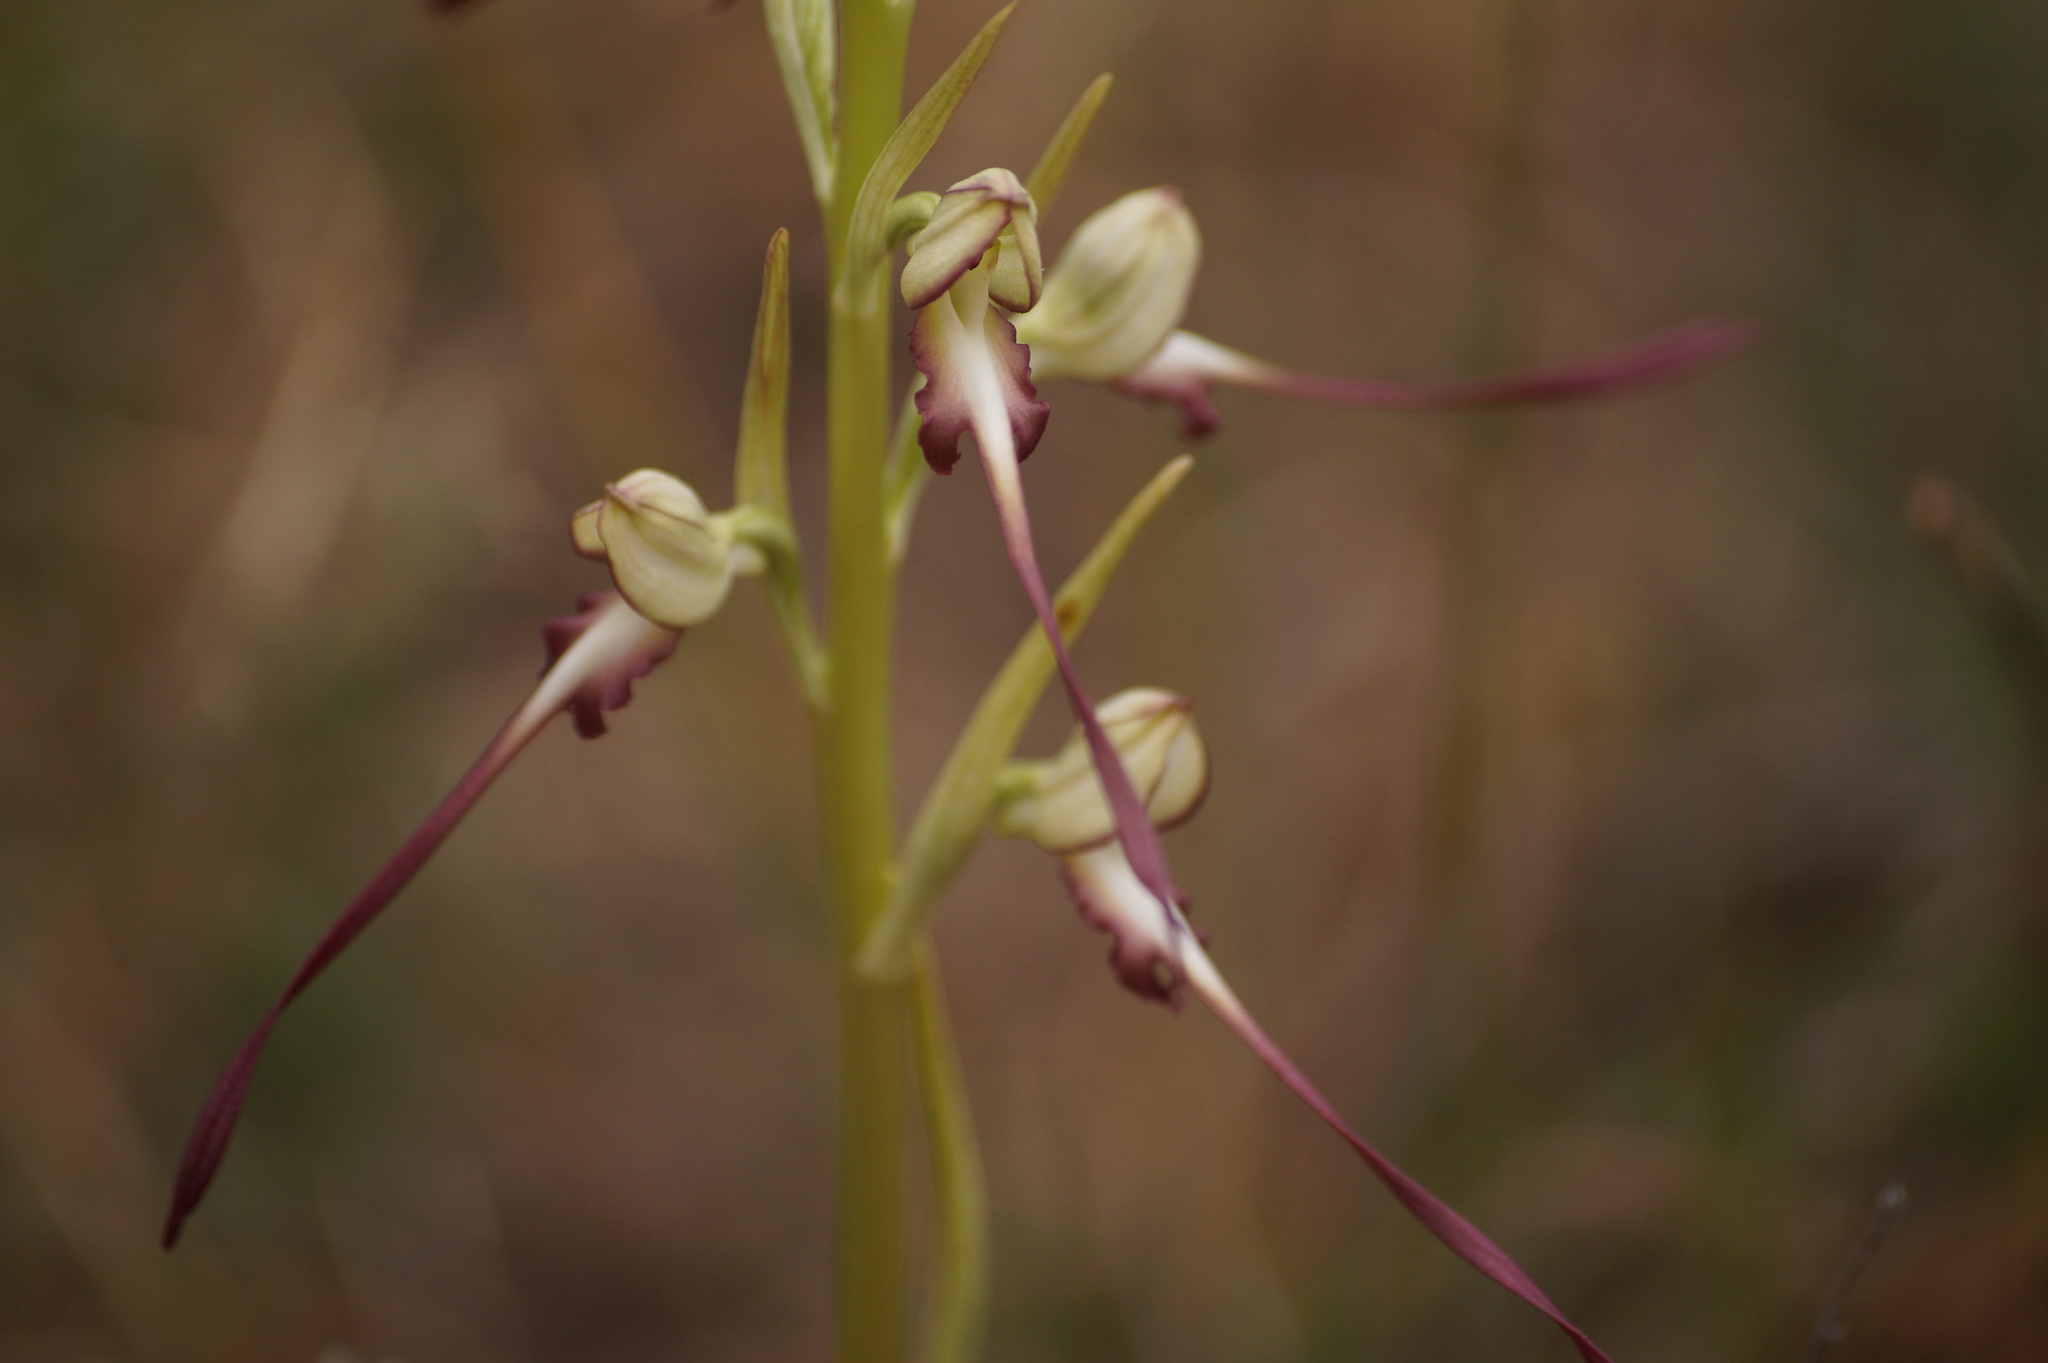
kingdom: Plantae
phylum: Tracheophyta
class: Liliopsida
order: Asparagales
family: Orchidaceae
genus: Himantoglossum
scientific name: Himantoglossum caprinum
